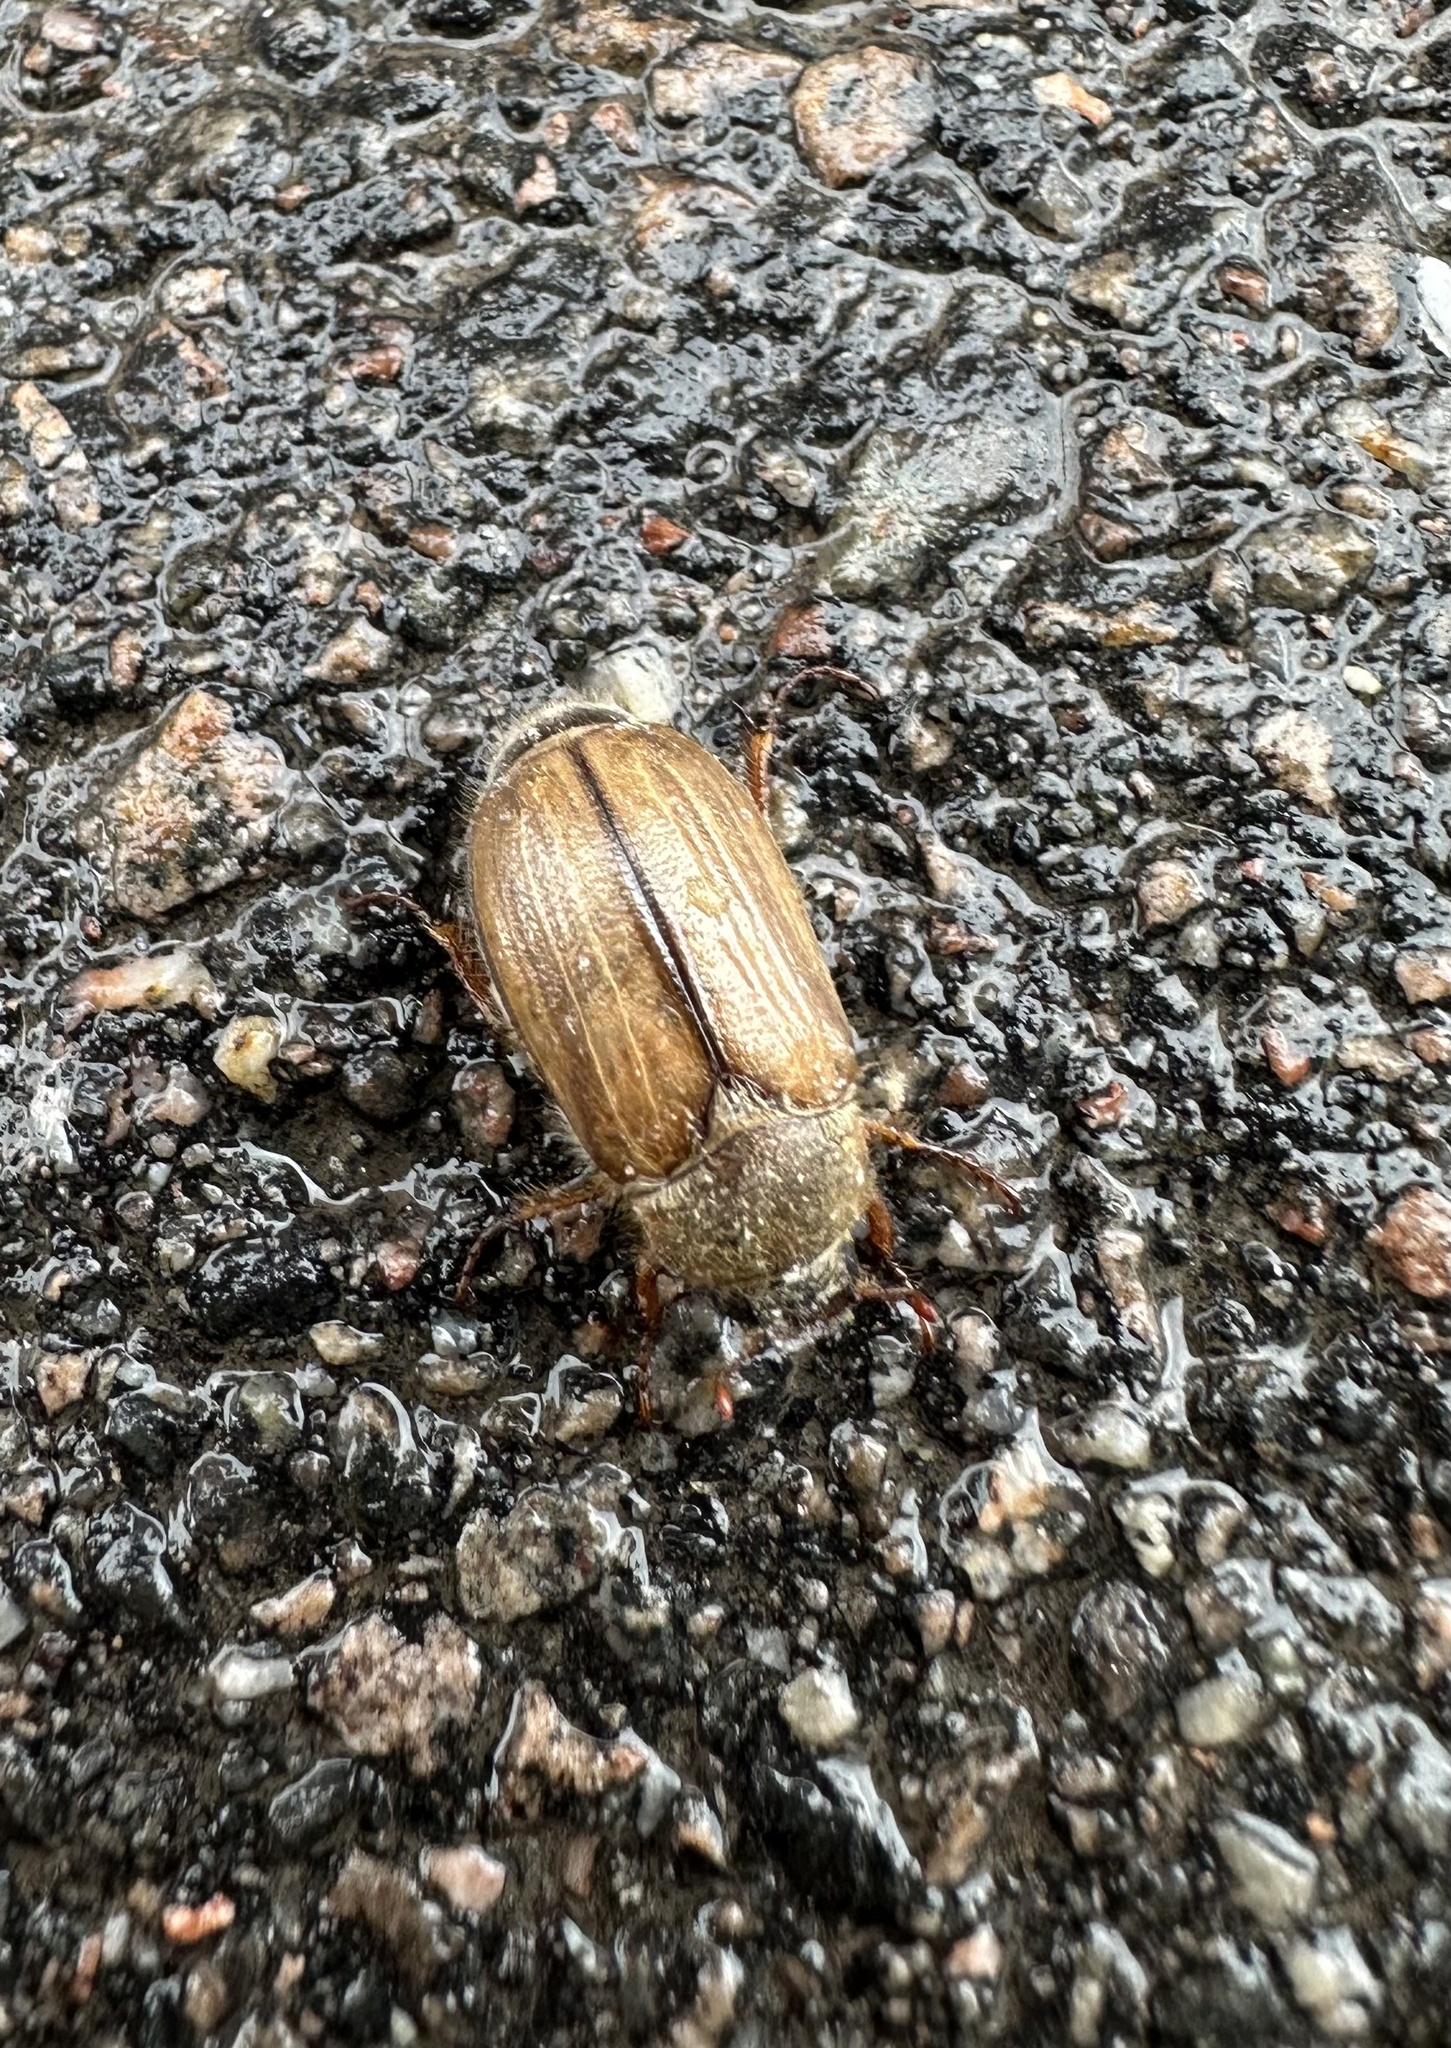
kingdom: Animalia
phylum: Arthropoda
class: Insecta
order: Coleoptera
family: Scarabaeidae
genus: Amphimallon
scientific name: Amphimallon solstitiale
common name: Summer chafer
